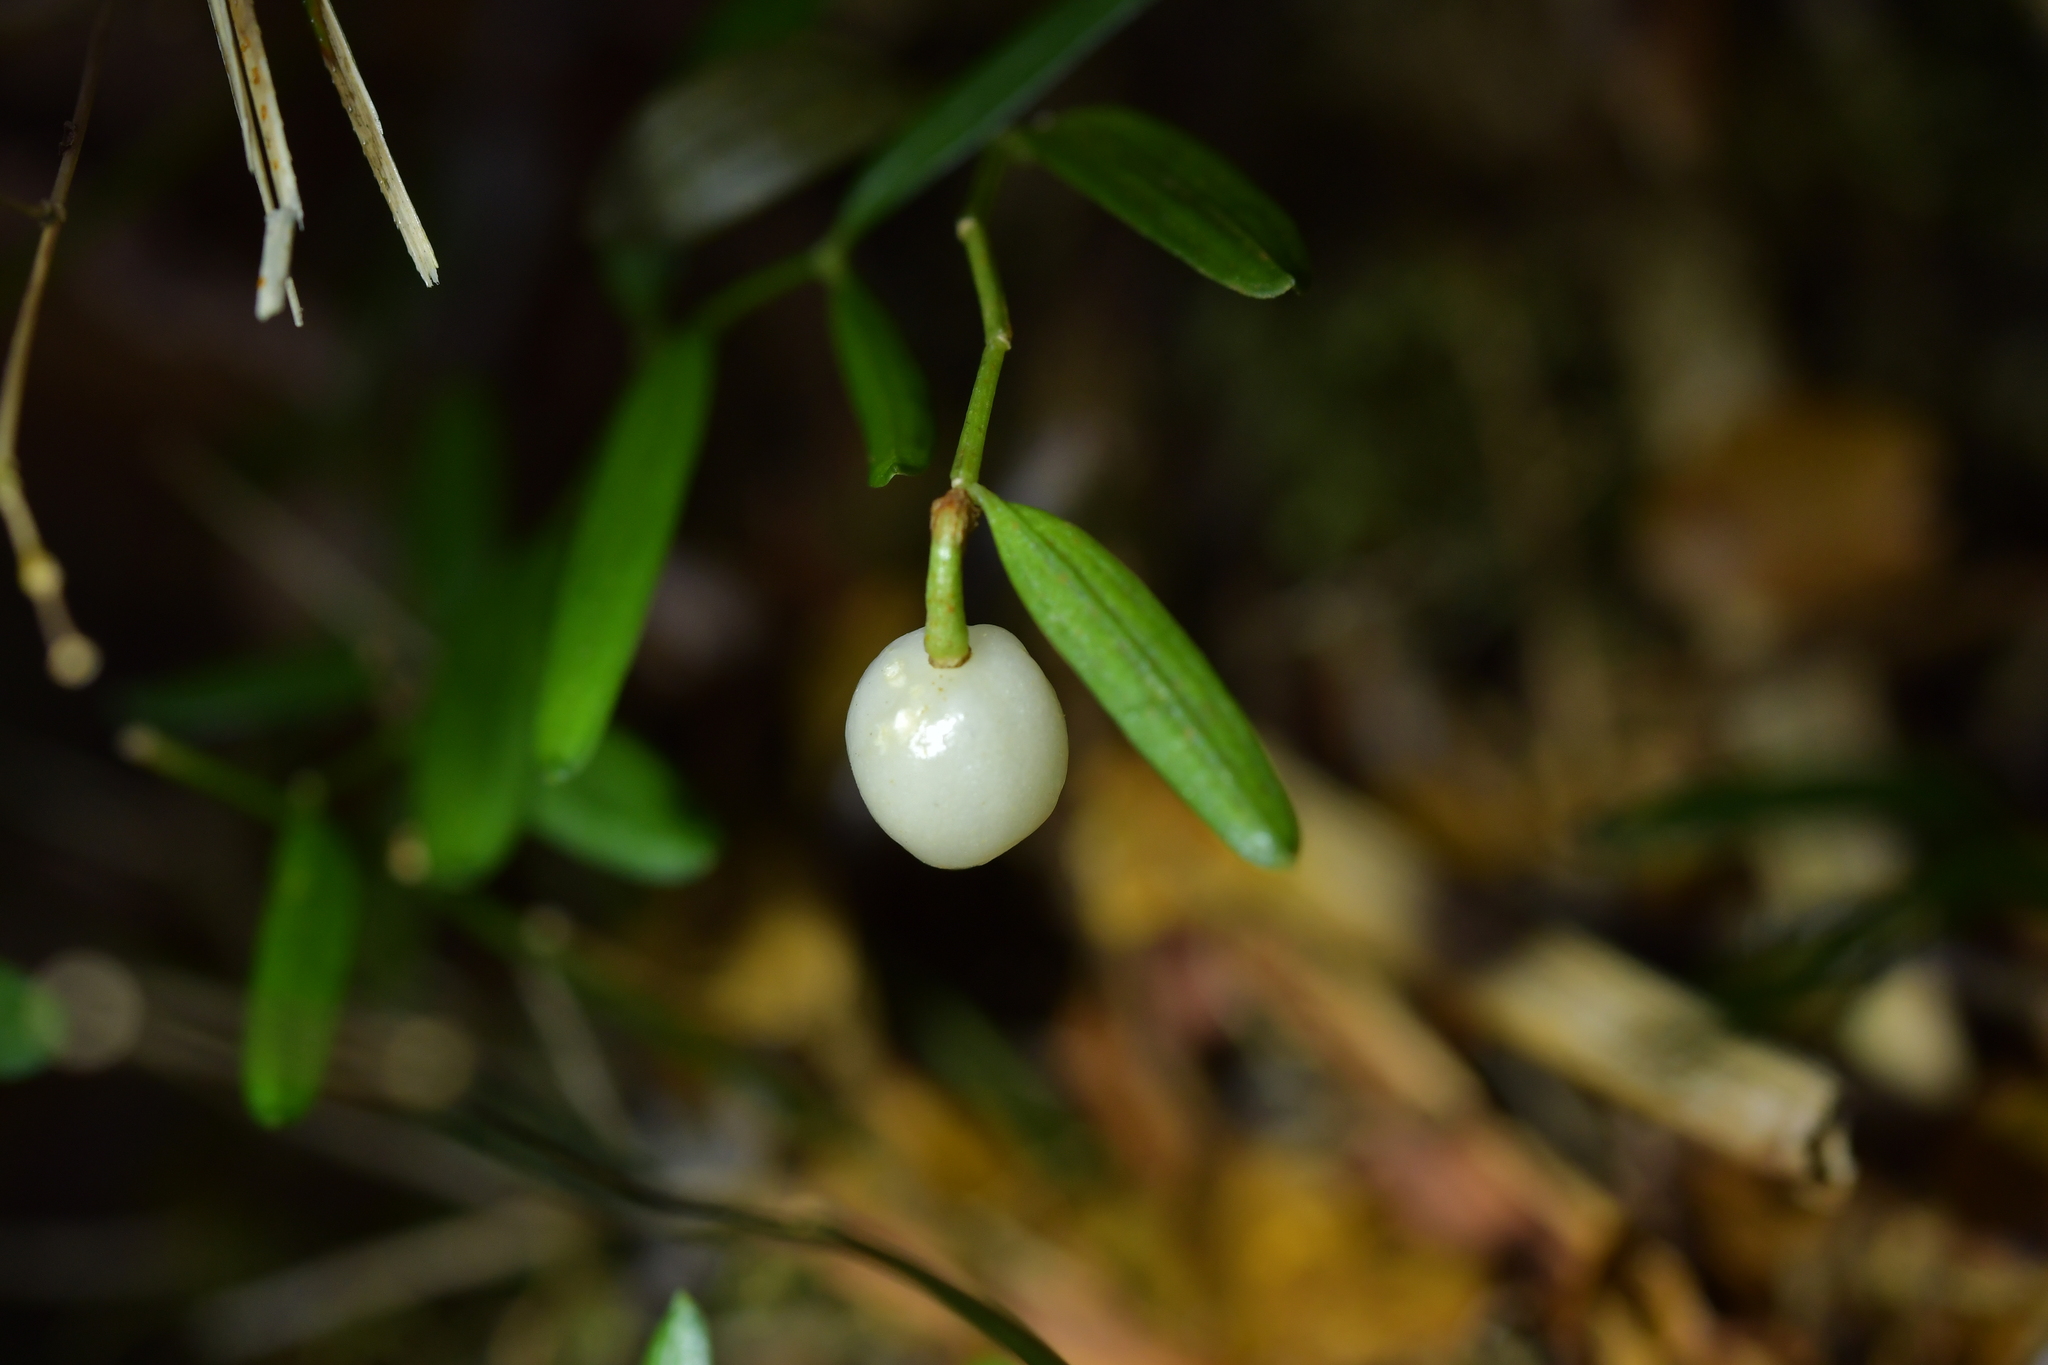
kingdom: Plantae
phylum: Tracheophyta
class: Liliopsida
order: Liliales
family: Alstroemeriaceae
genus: Luzuriaga
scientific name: Luzuriaga parviflora
